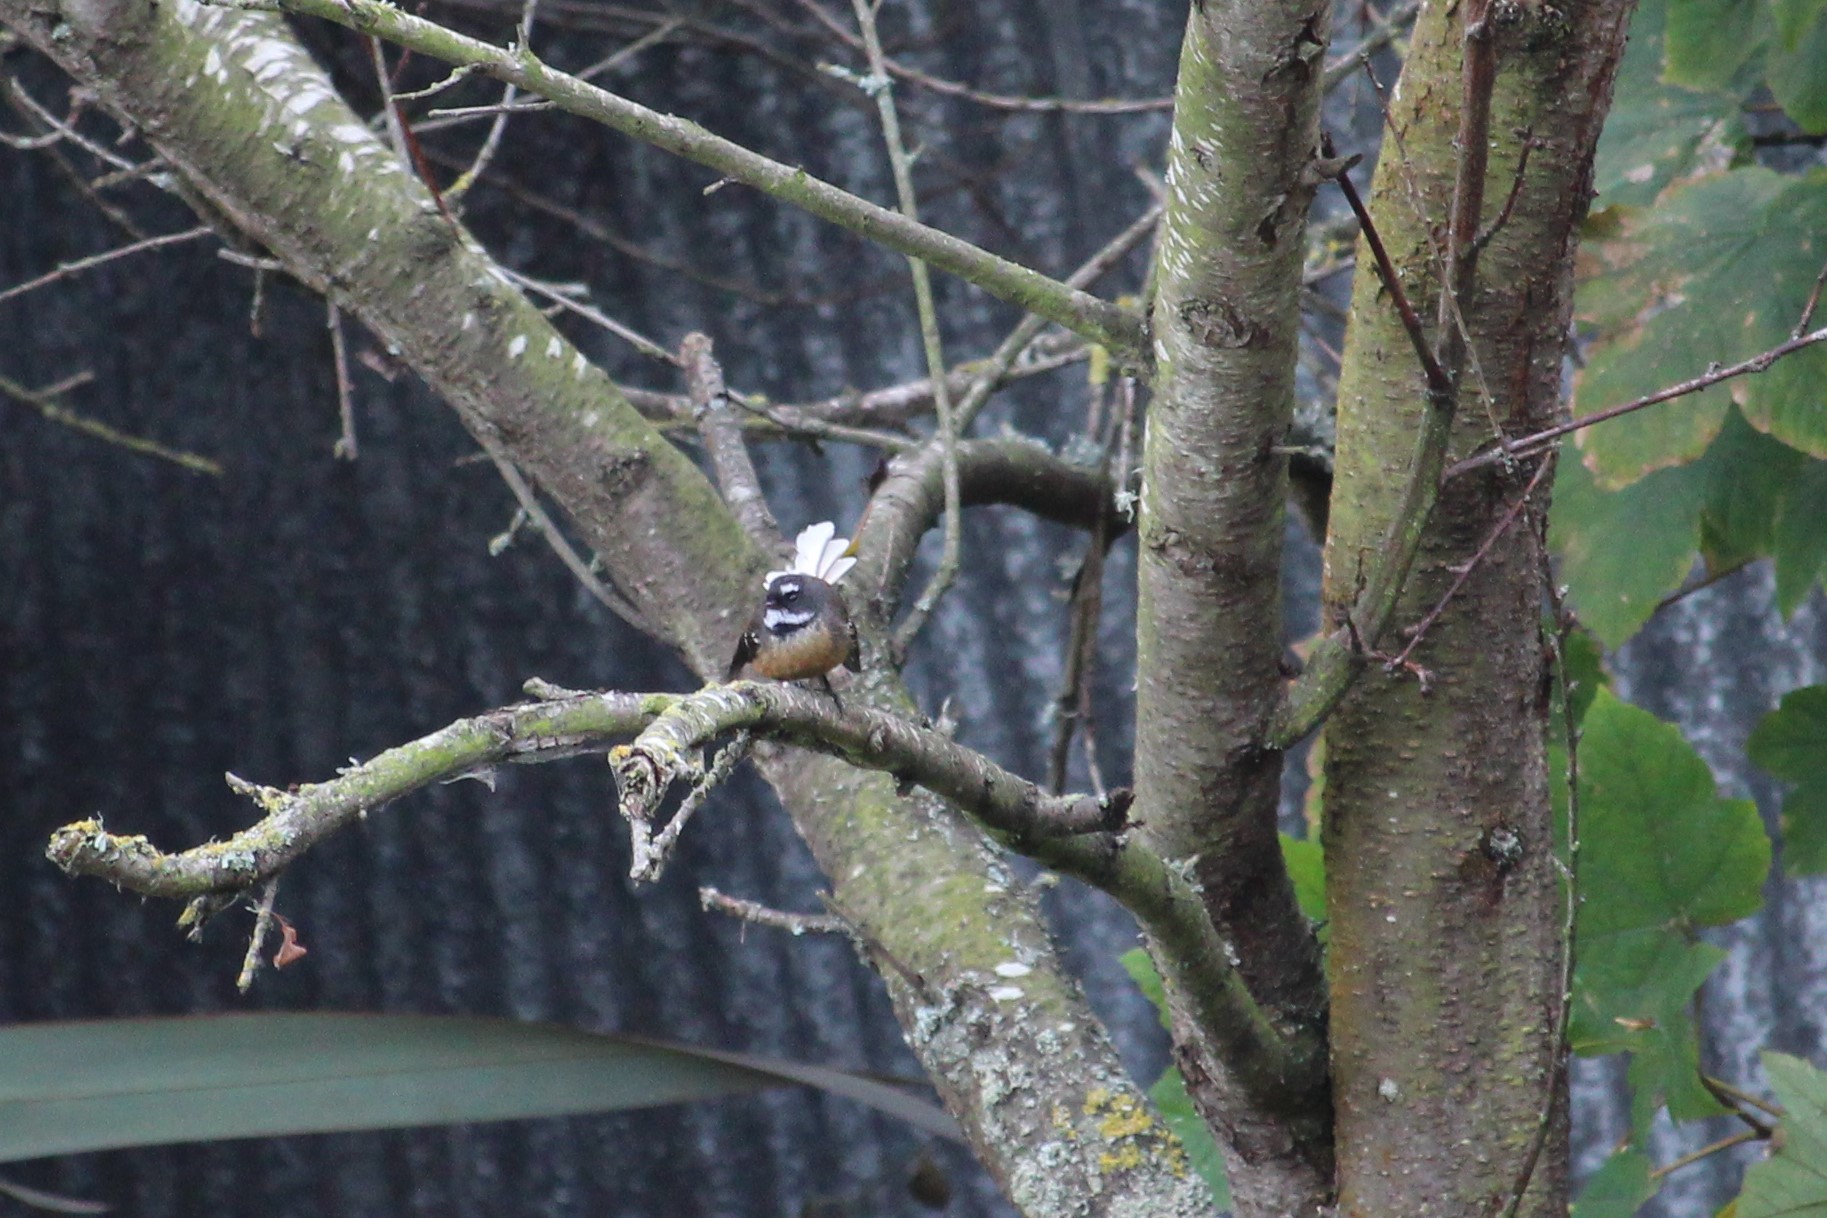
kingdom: Animalia
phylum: Chordata
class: Aves
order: Passeriformes
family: Rhipiduridae
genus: Rhipidura
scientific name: Rhipidura fuliginosa
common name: New zealand fantail
